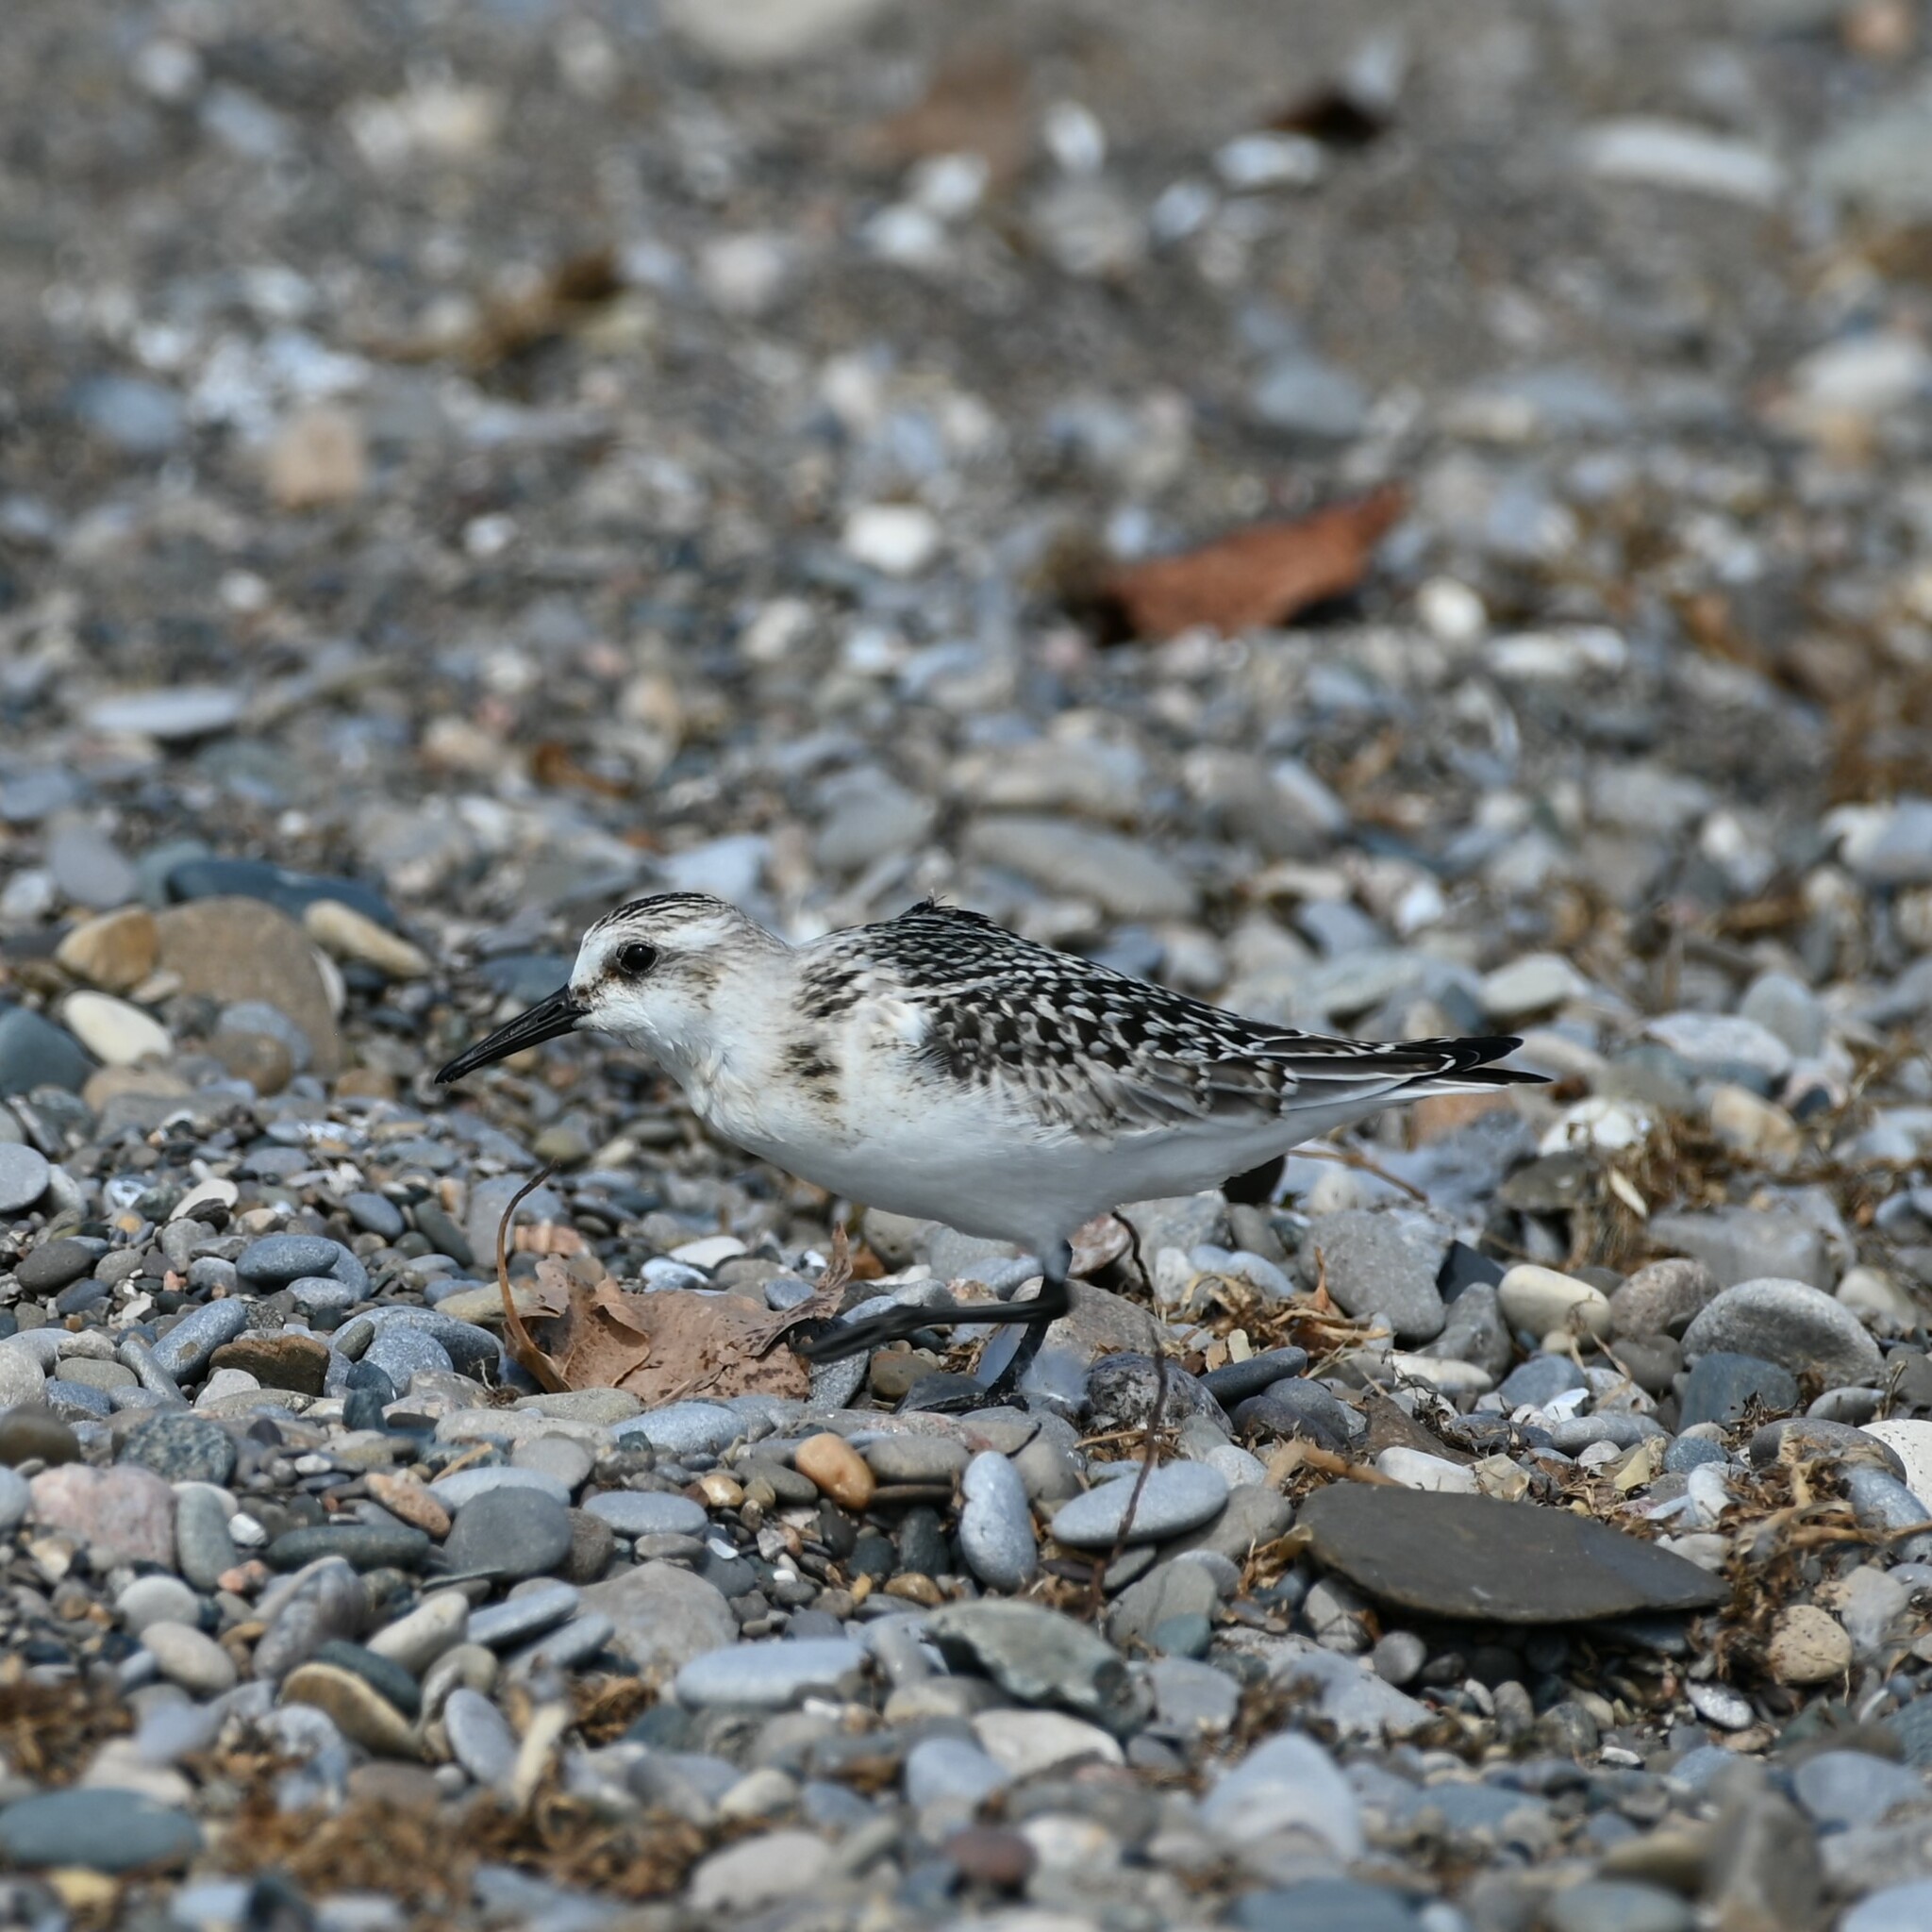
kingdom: Animalia
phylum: Chordata
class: Aves
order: Charadriiformes
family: Scolopacidae
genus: Calidris
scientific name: Calidris alba
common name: Sanderling
